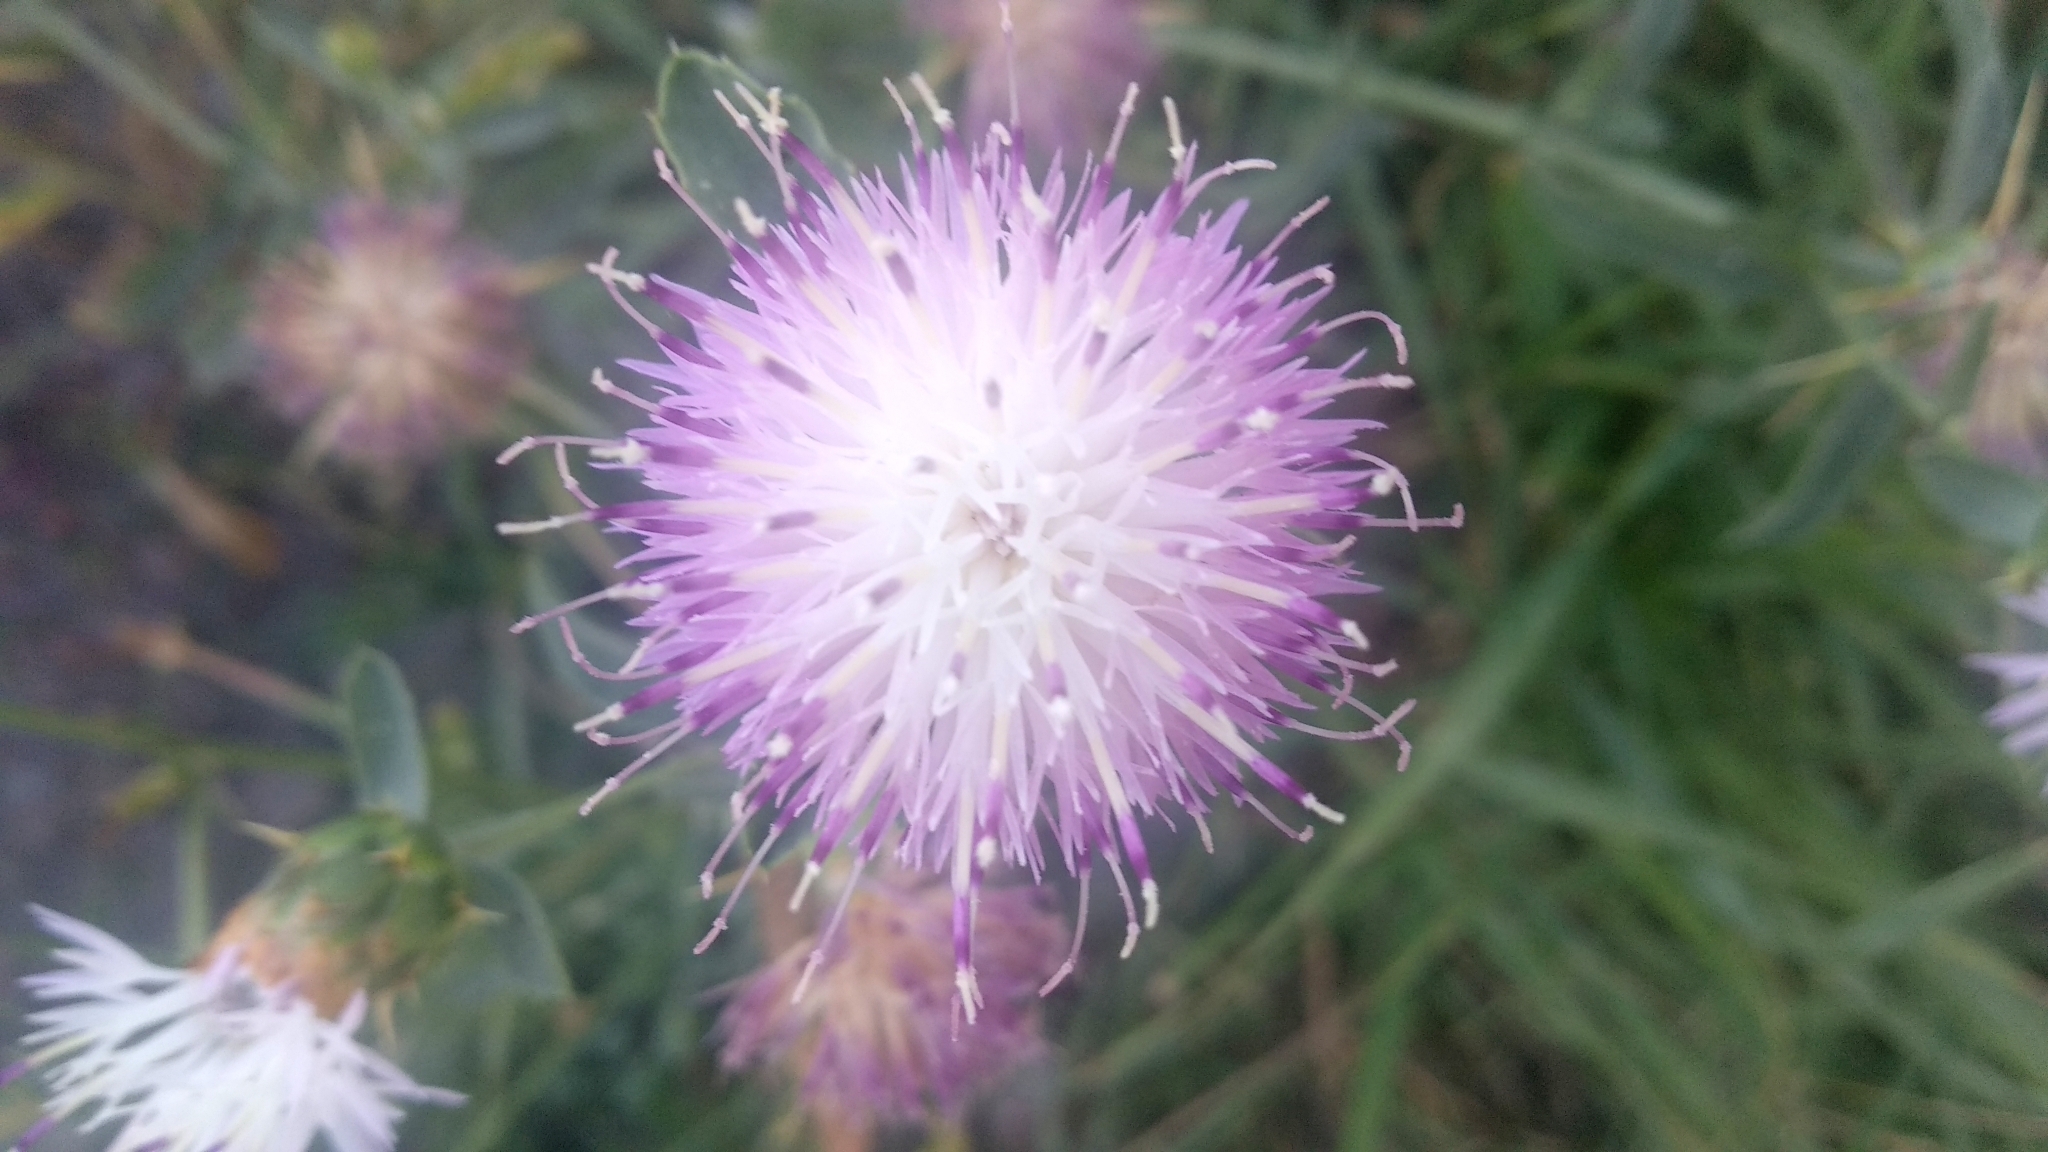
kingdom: Plantae
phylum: Tracheophyta
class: Magnoliopsida
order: Asterales
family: Asteraceae
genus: Centaurea
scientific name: Centaurea iberica
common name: Iberian knapweed
